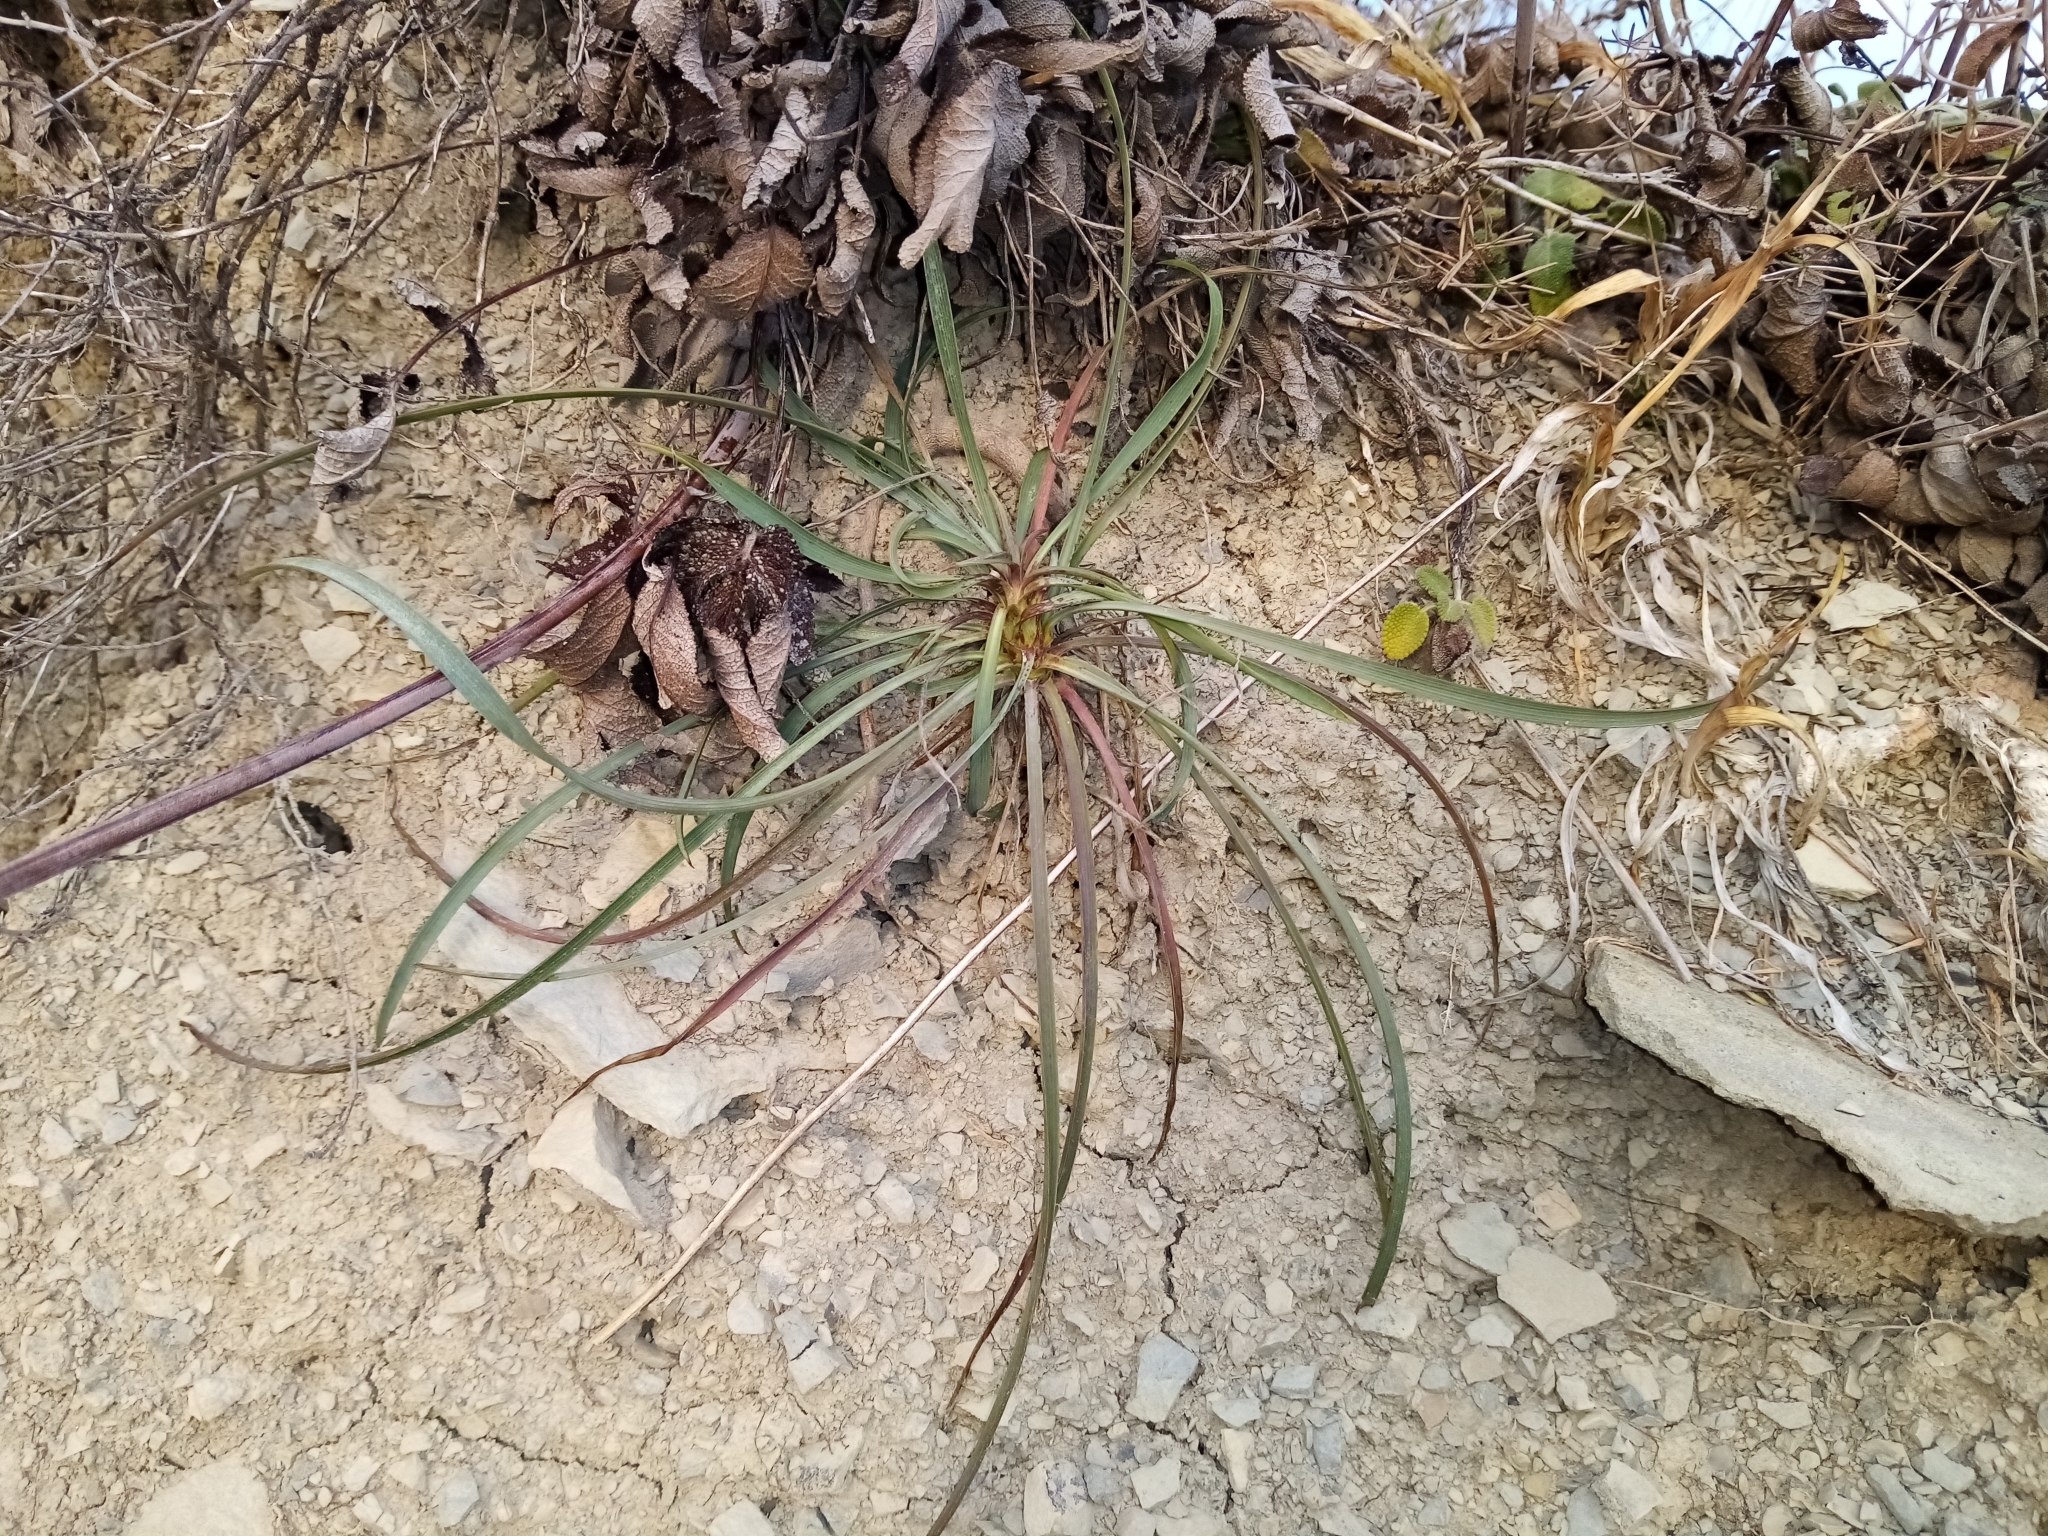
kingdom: Plantae
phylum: Tracheophyta
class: Magnoliopsida
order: Apiales
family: Apiaceae
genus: Bupleurum
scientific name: Bupleurum woronowii
